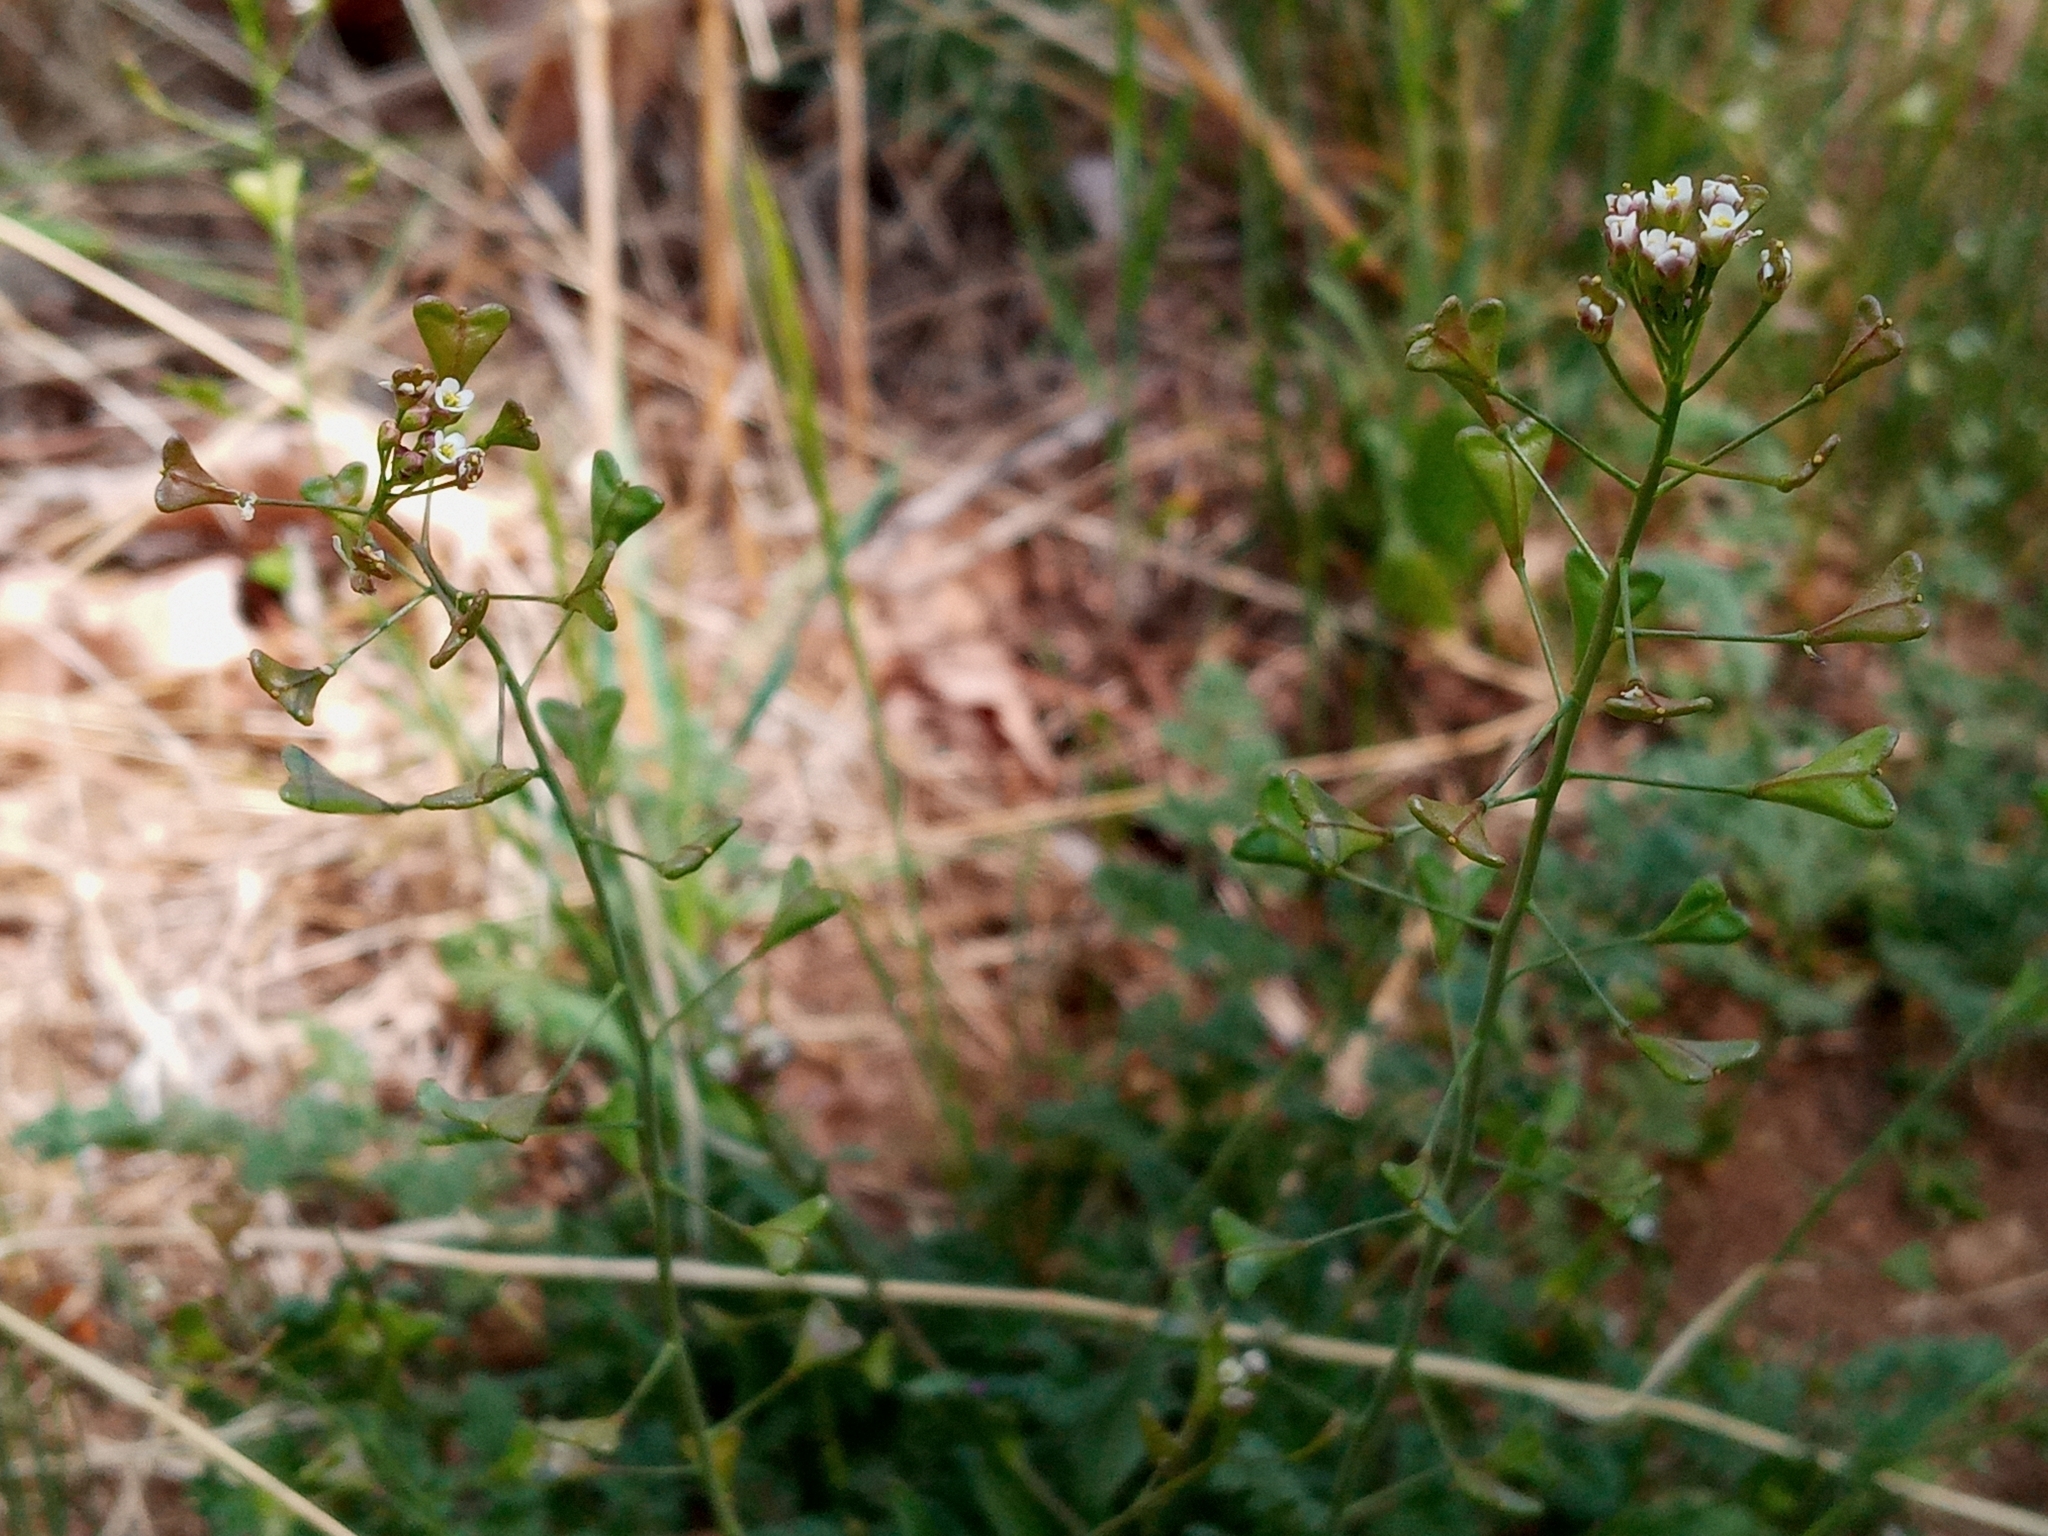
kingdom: Plantae
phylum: Tracheophyta
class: Magnoliopsida
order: Brassicales
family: Brassicaceae
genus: Capsella
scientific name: Capsella bursa-pastoris
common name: Shepherd's purse
